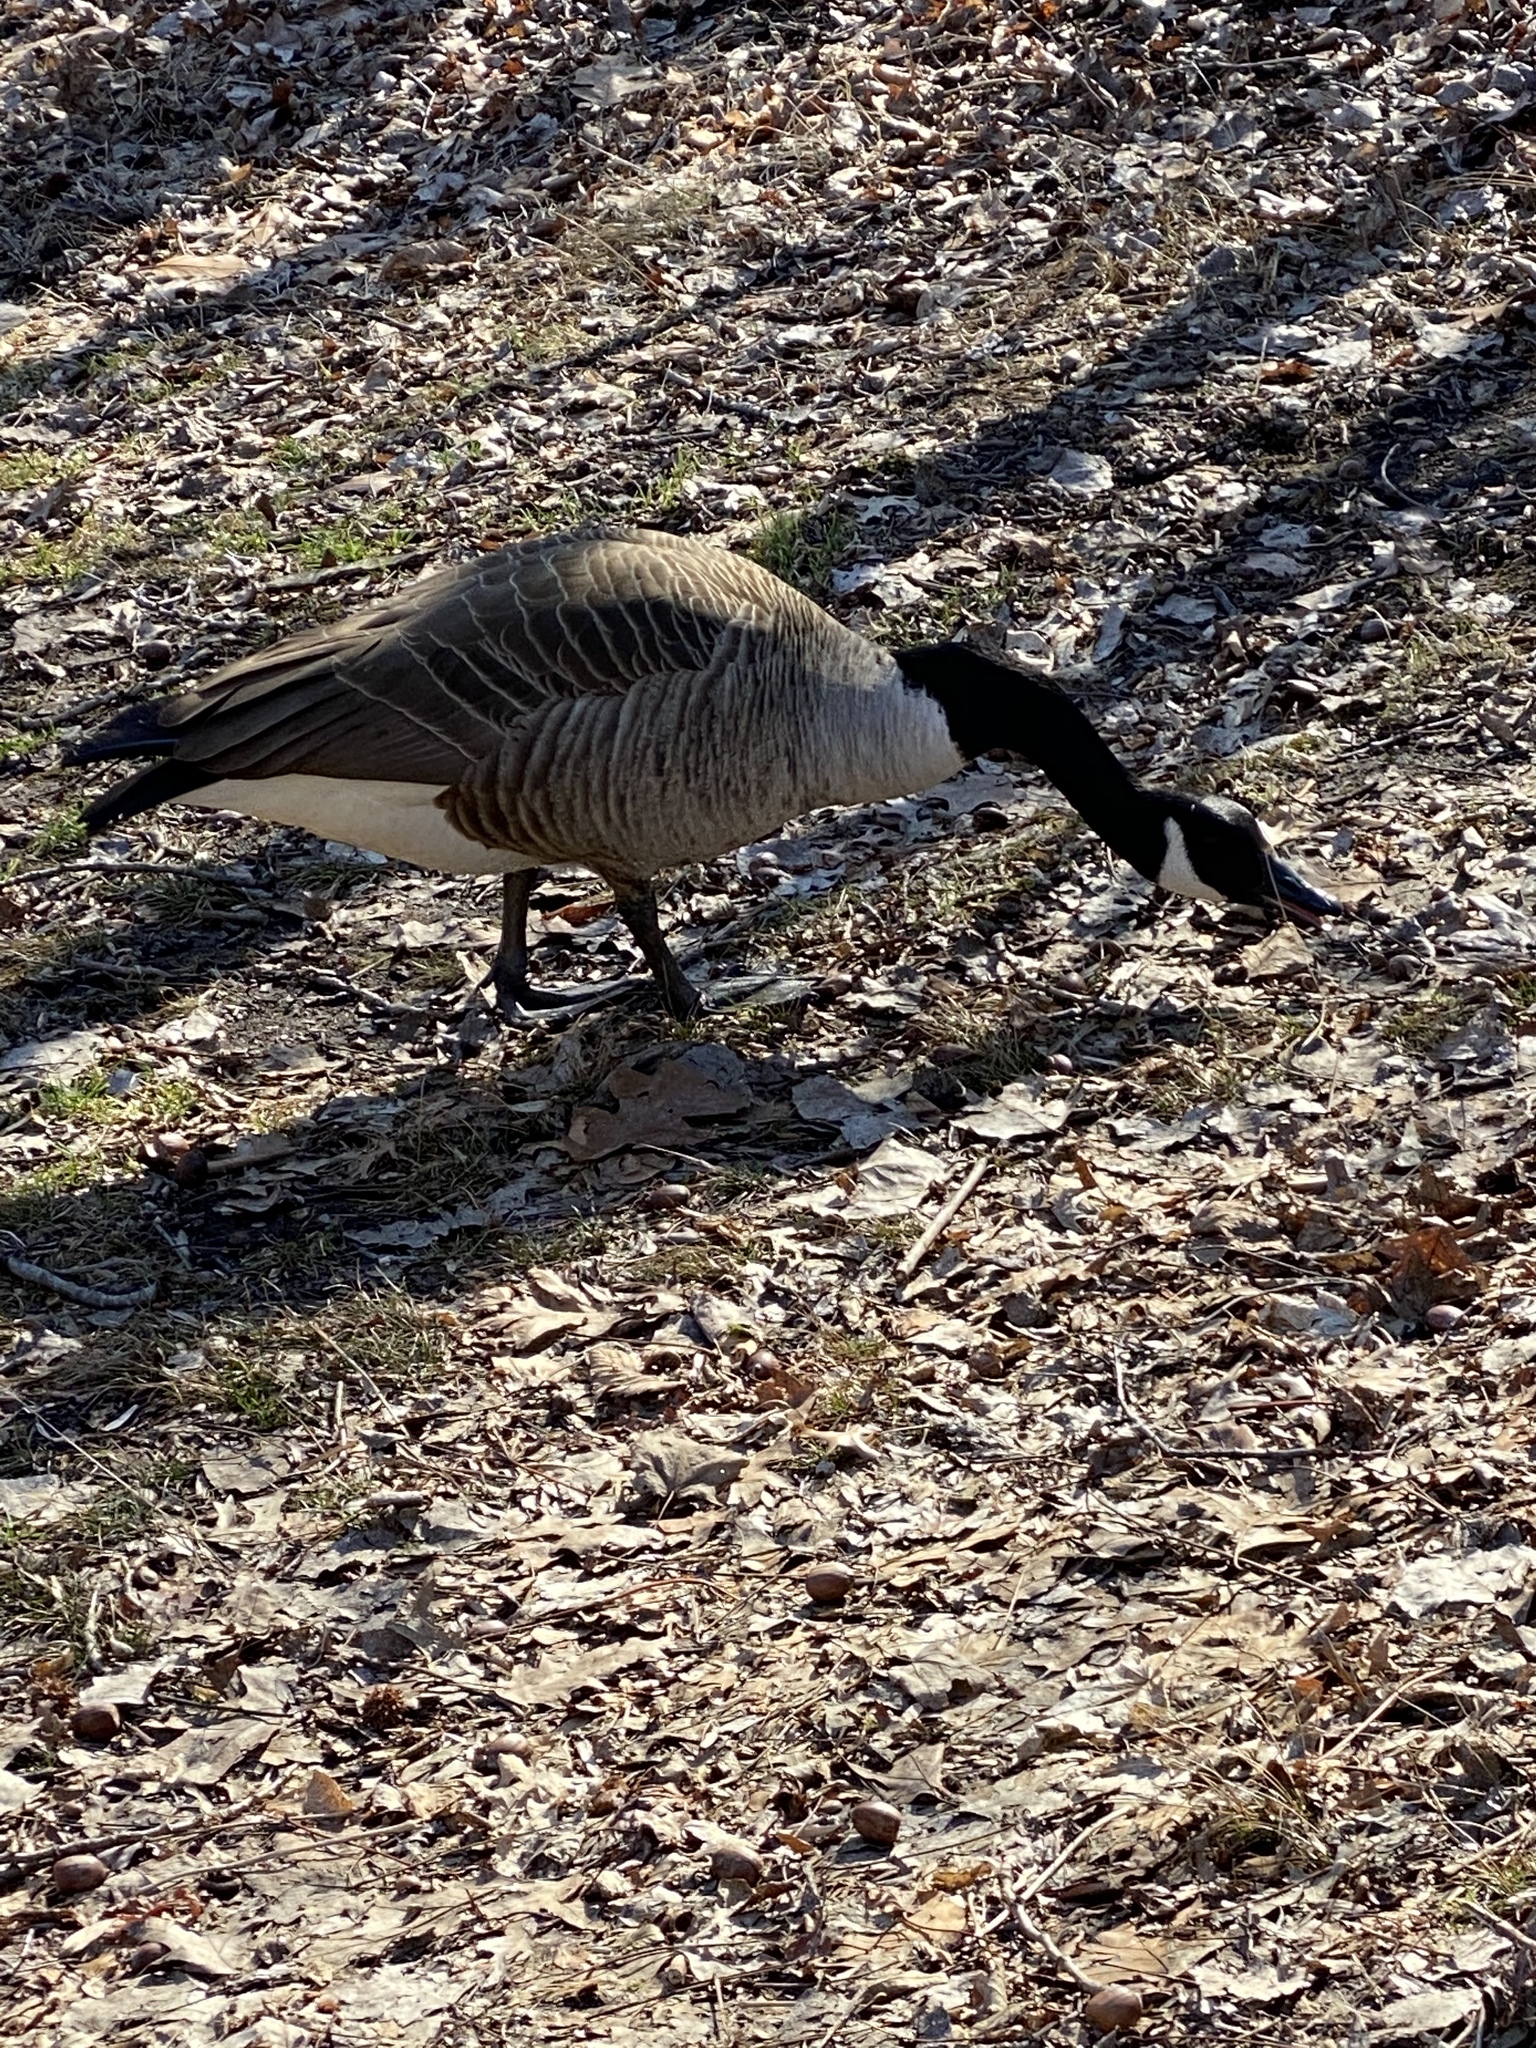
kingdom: Animalia
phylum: Chordata
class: Aves
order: Anseriformes
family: Anatidae
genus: Branta
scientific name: Branta canadensis
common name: Canada goose
